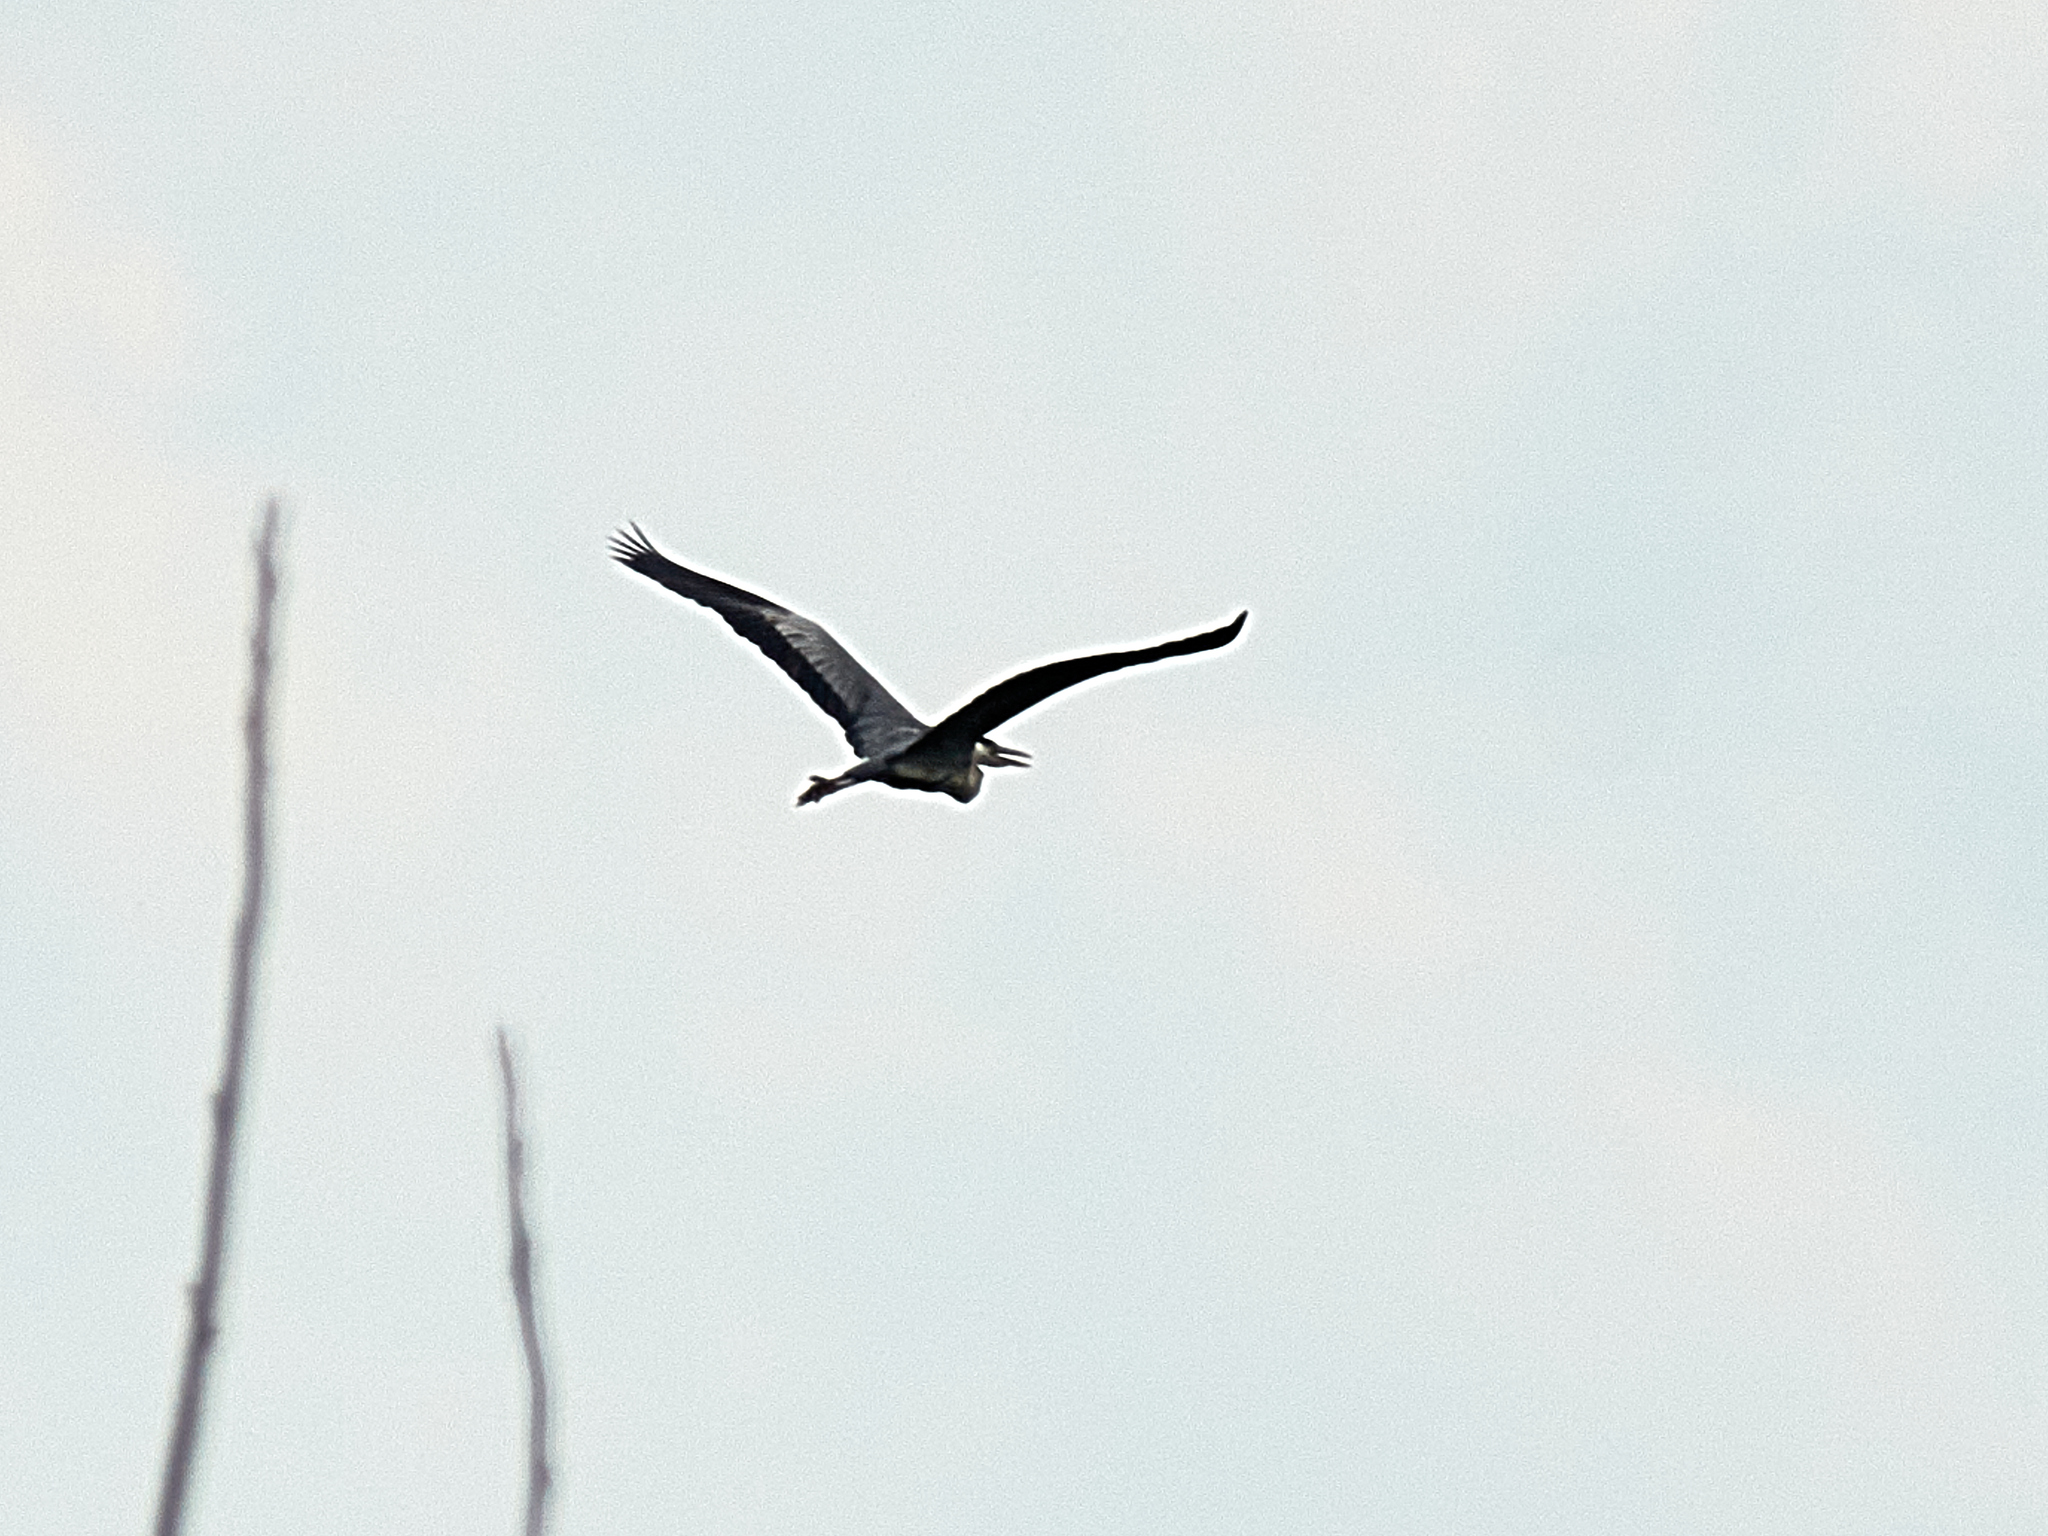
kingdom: Animalia
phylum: Chordata
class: Aves
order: Pelecaniformes
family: Ardeidae
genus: Ardea
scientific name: Ardea cinerea
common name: Grey heron
